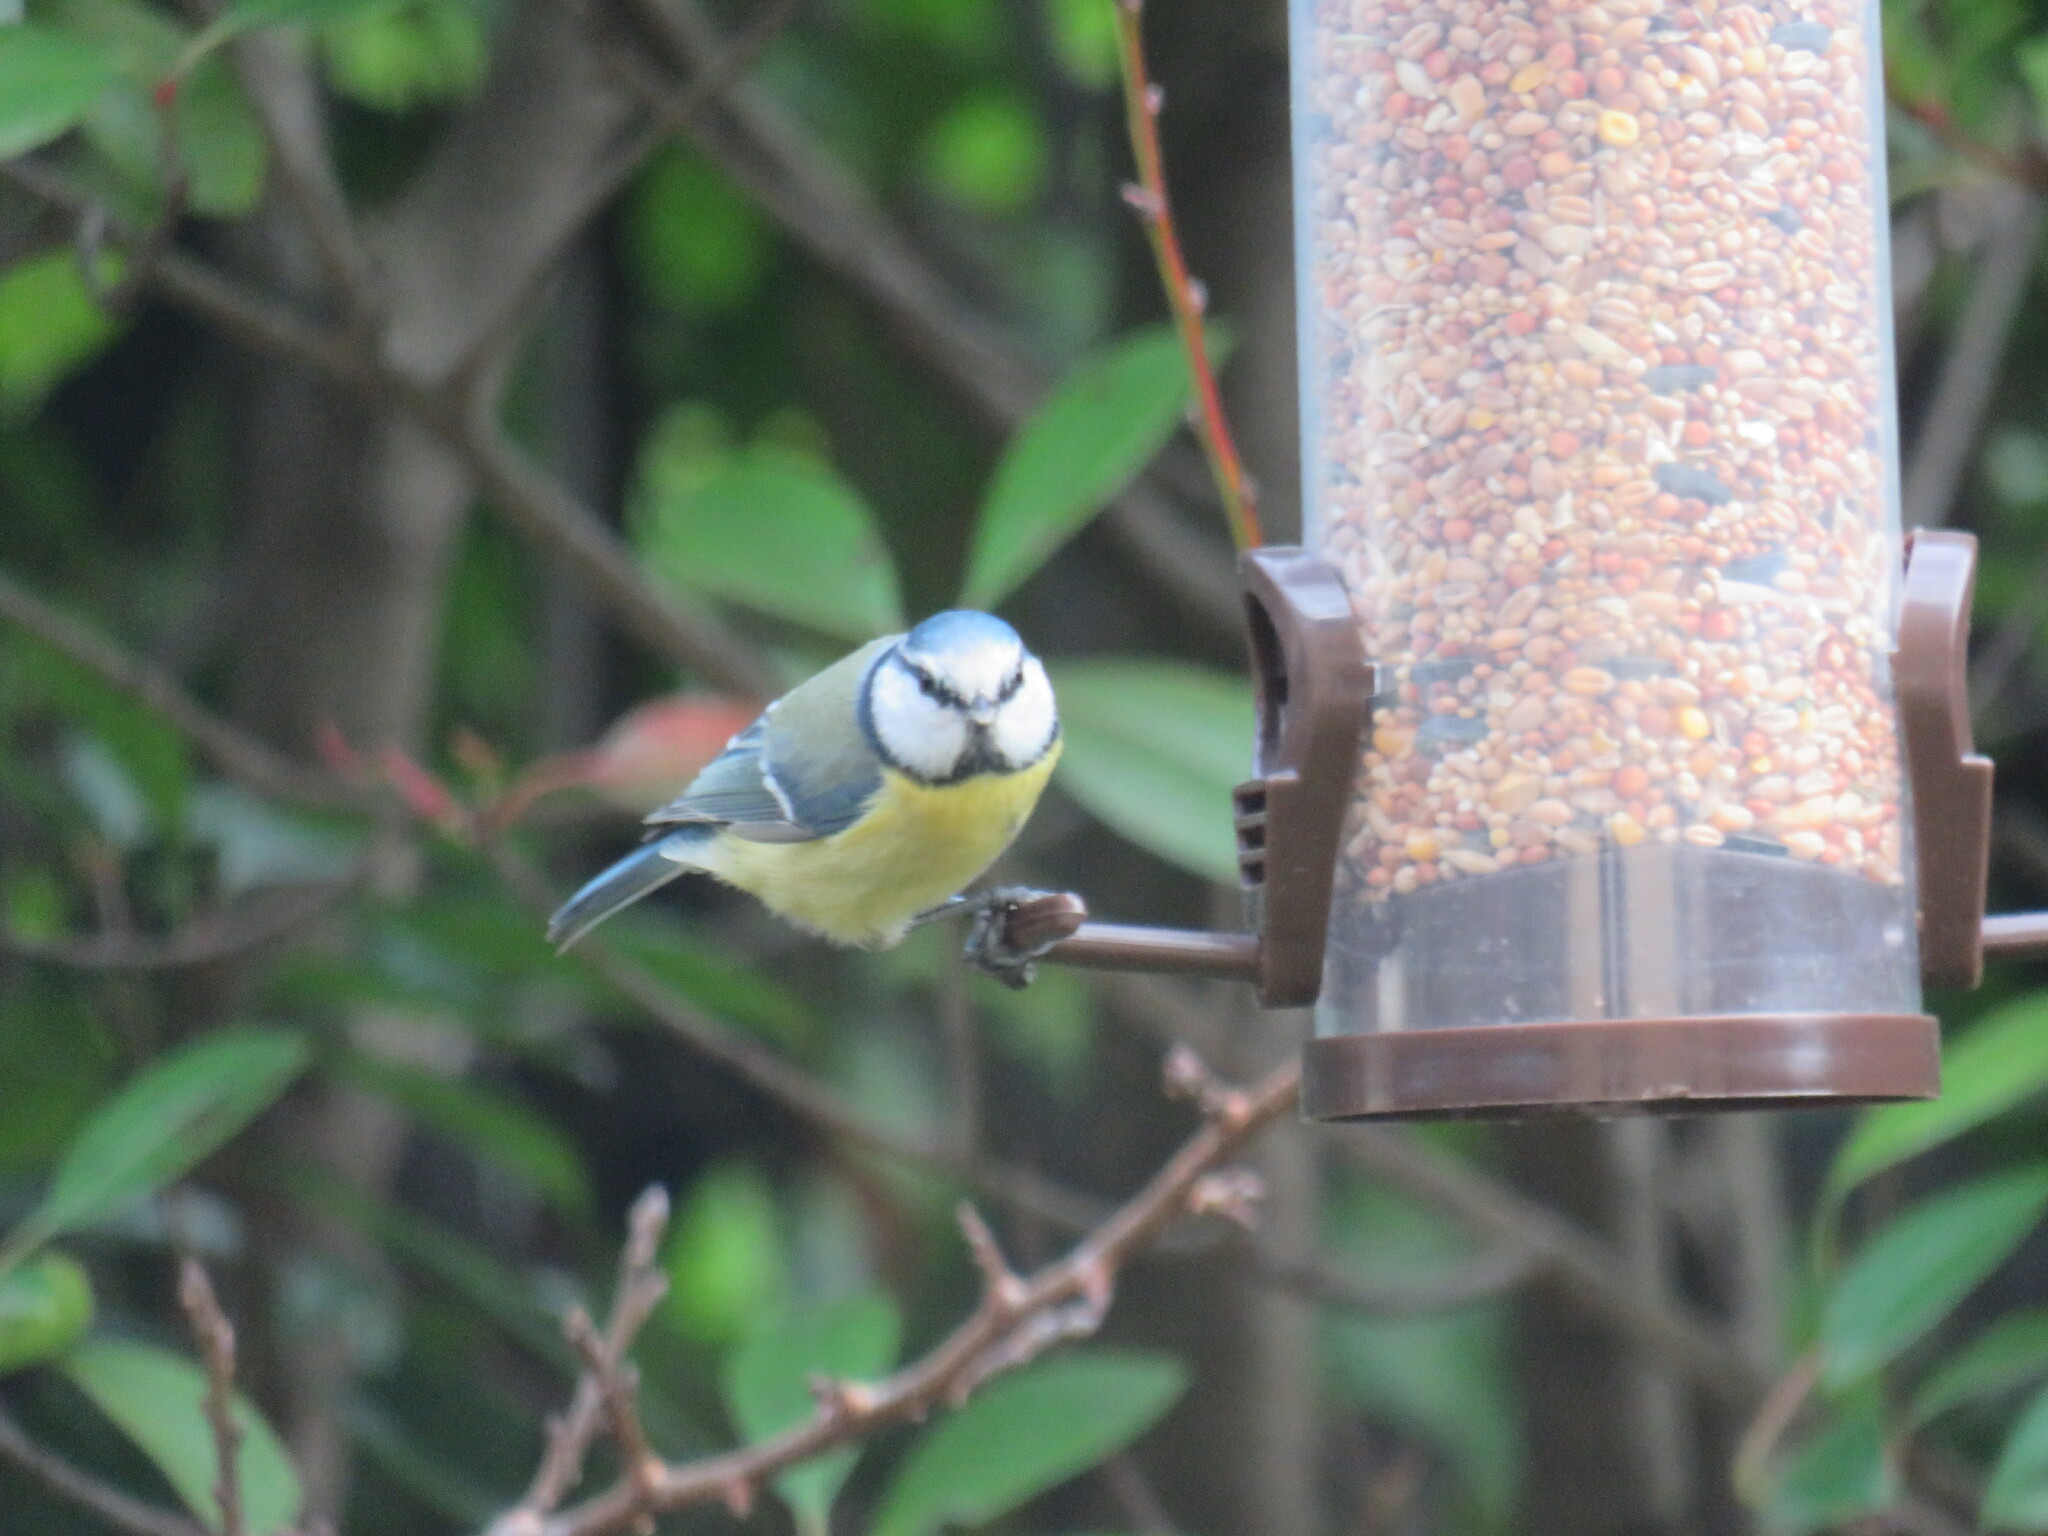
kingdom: Animalia
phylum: Chordata
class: Aves
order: Passeriformes
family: Paridae
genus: Cyanistes
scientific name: Cyanistes caeruleus
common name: Eurasian blue tit
